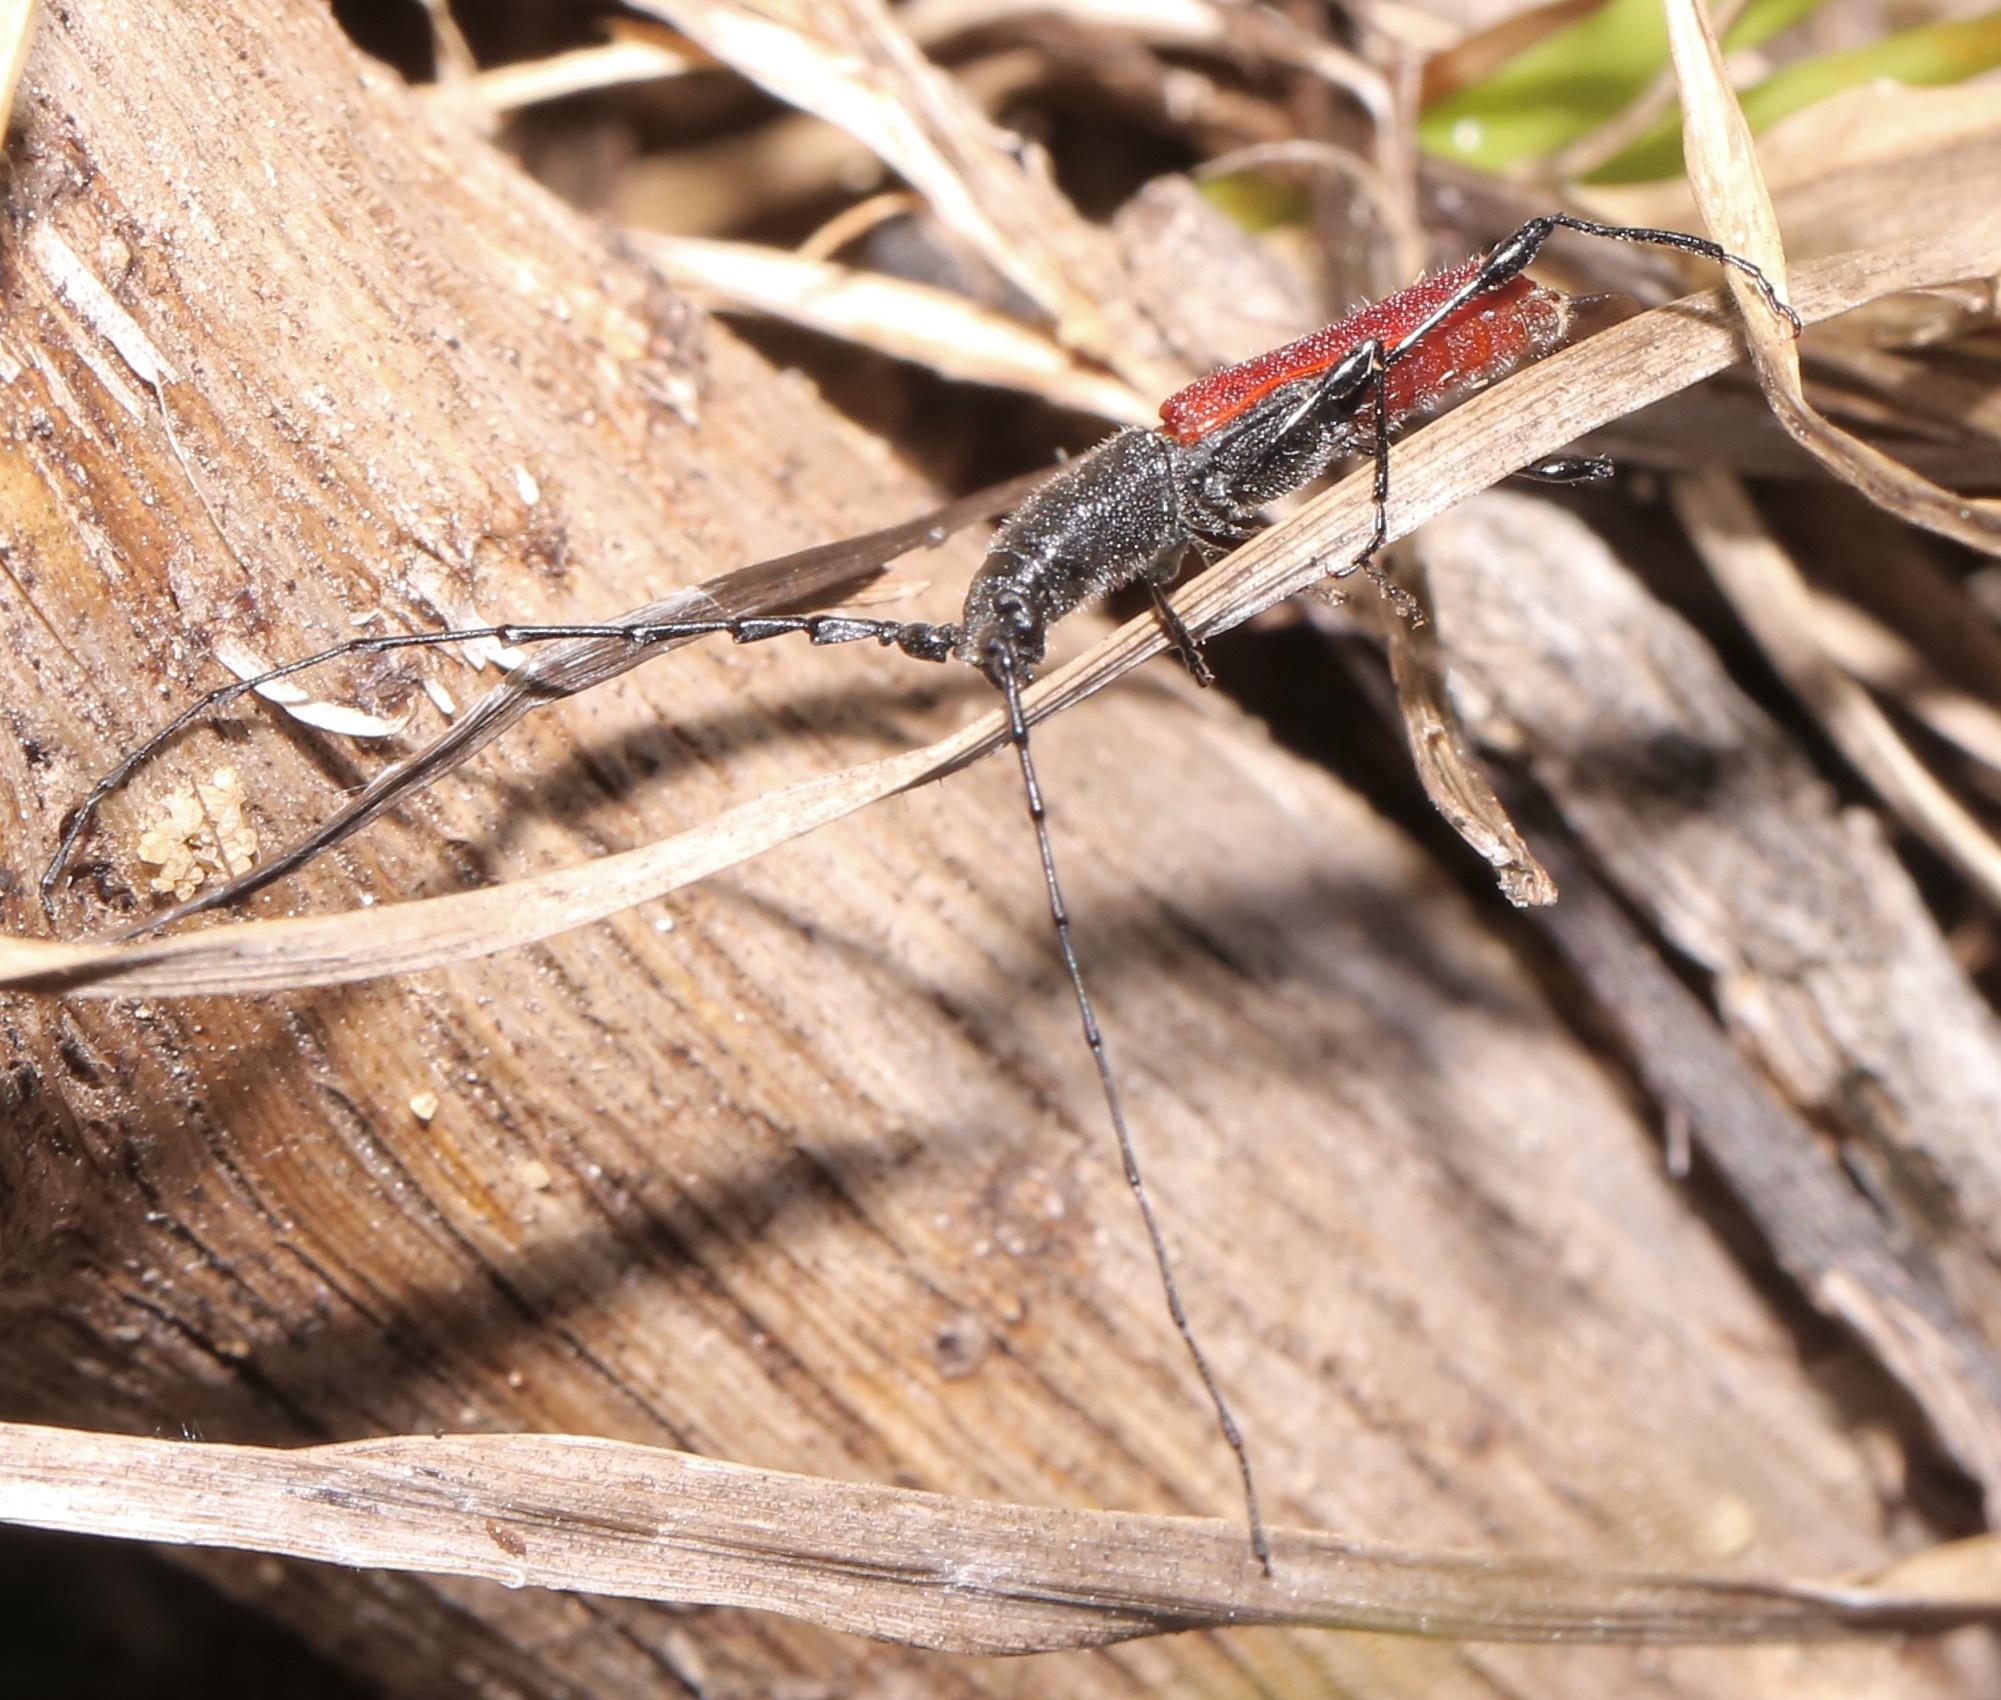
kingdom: Animalia
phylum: Arthropoda
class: Insecta
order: Coleoptera
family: Cerambycidae
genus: Ancylocera
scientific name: Ancylocera bicolor
